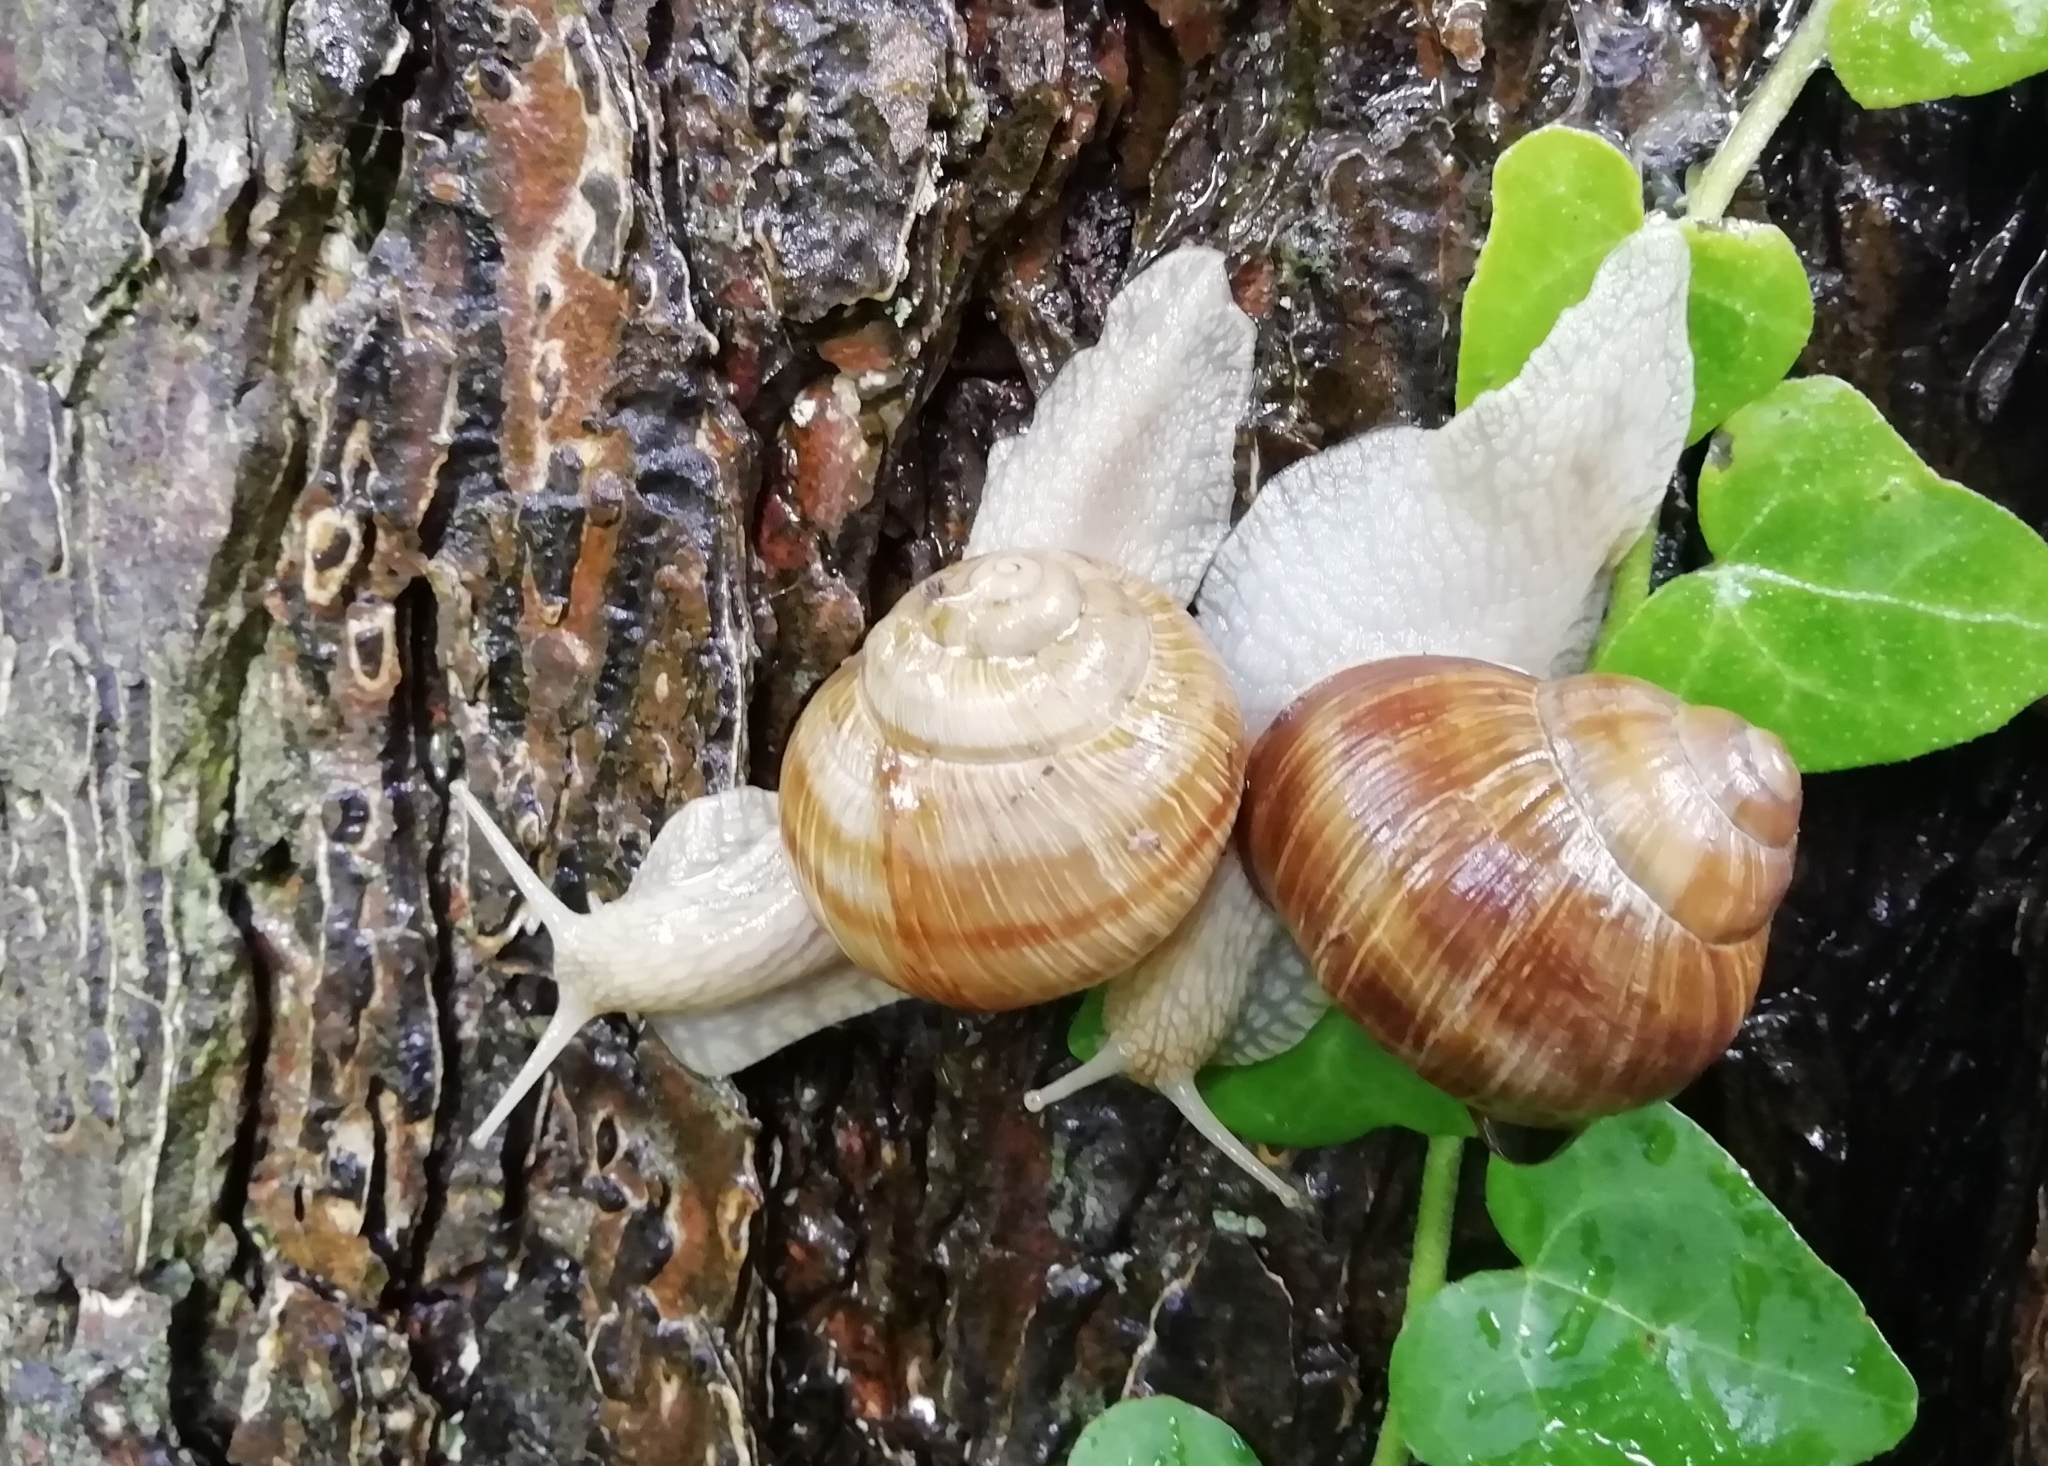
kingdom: Animalia
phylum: Mollusca
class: Gastropoda
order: Stylommatophora
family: Helicidae
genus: Helix
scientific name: Helix pomatia
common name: Roman snail
